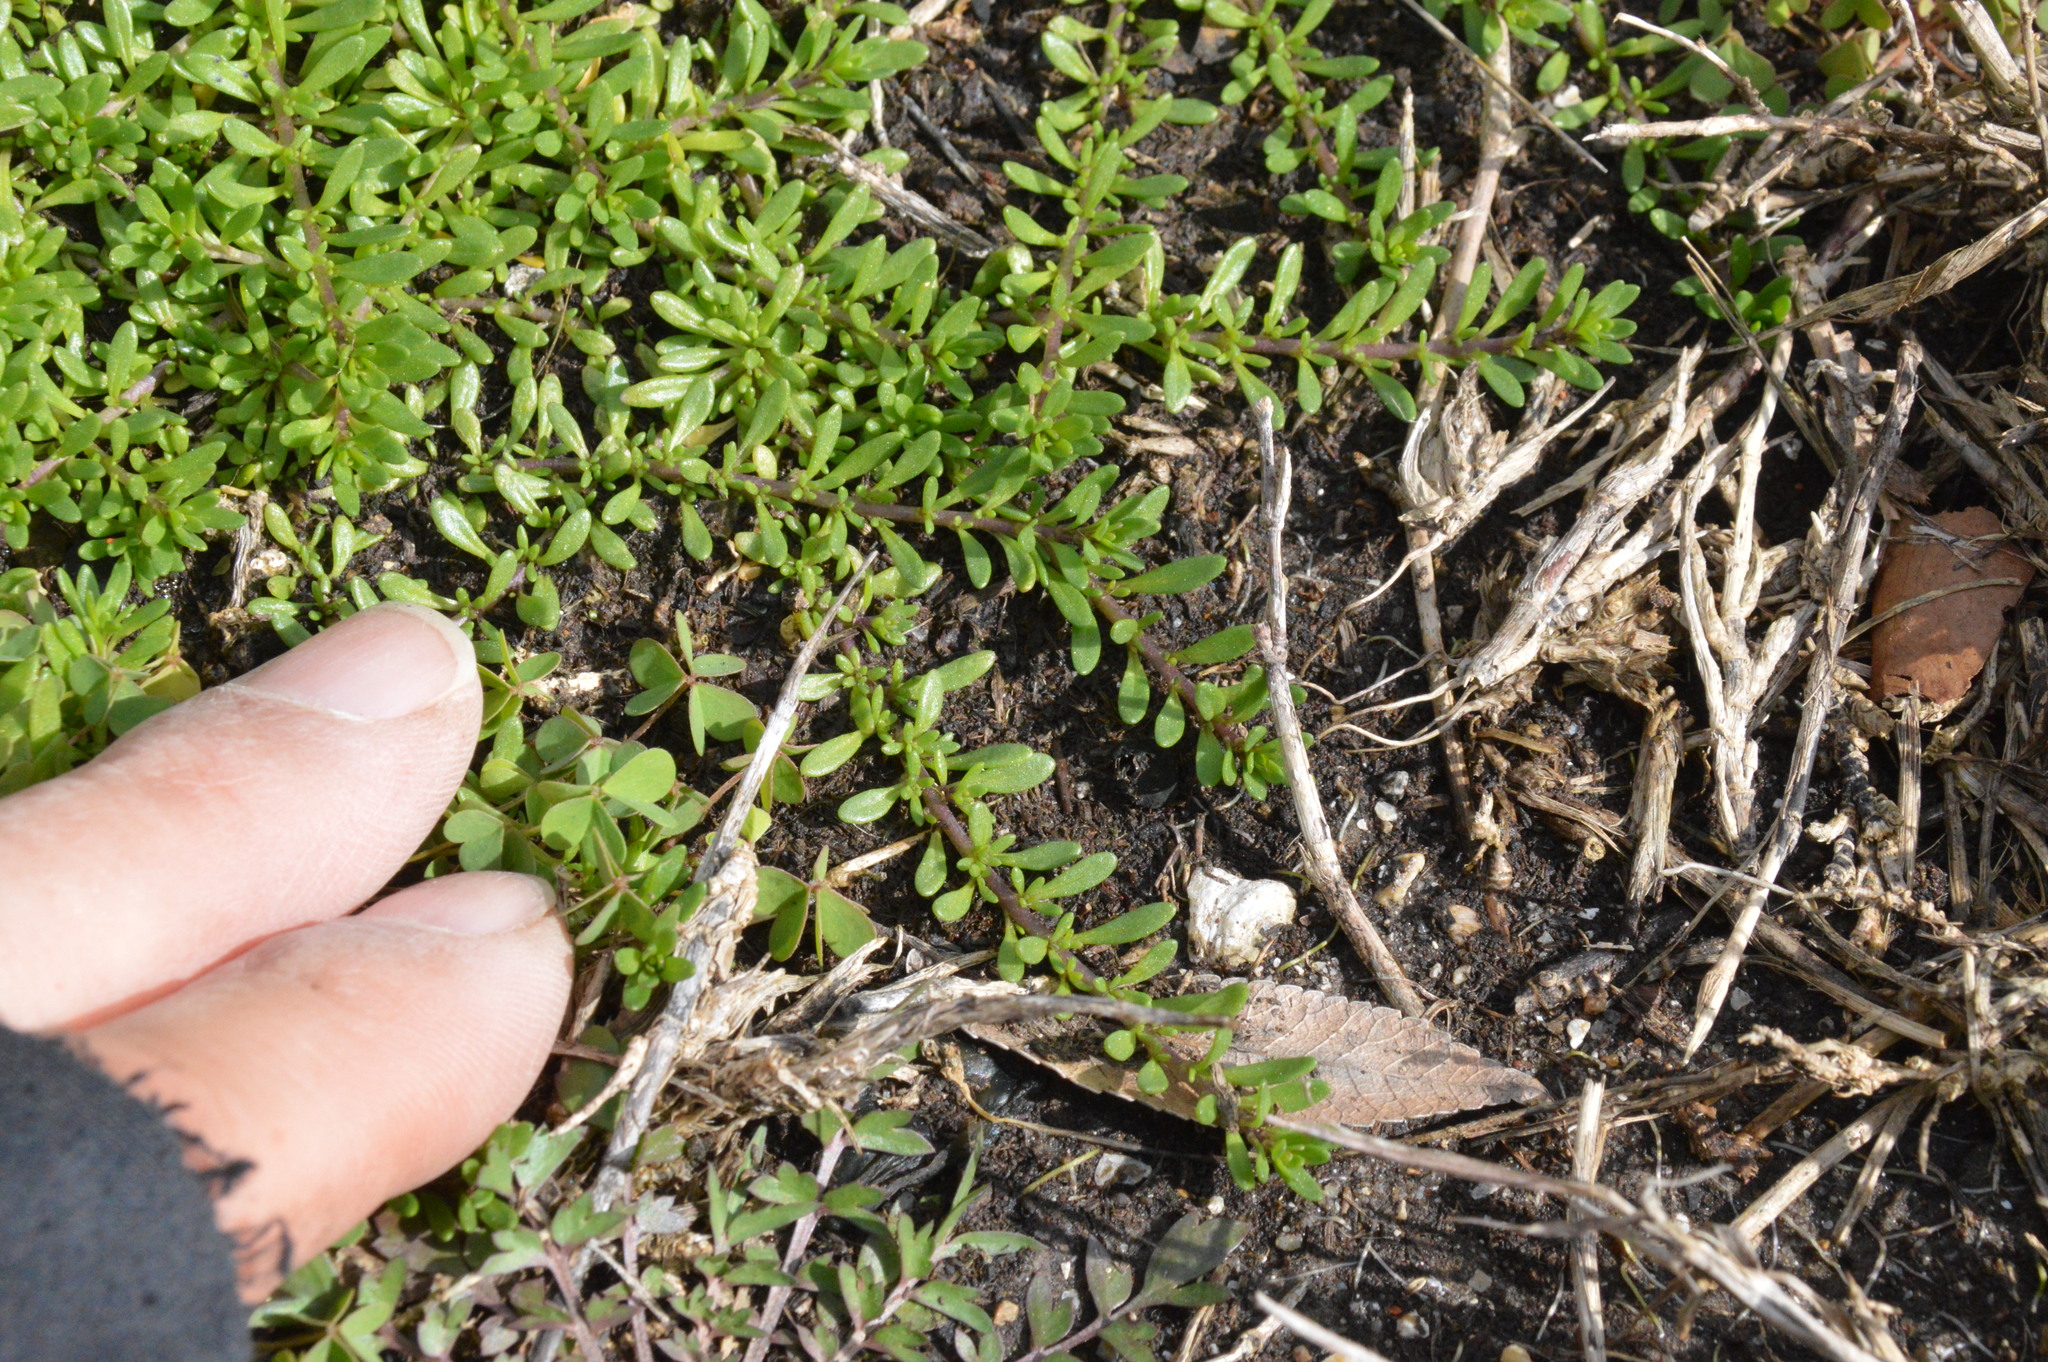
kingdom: Plantae
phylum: Tracheophyta
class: Magnoliopsida
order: Rosales
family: Urticaceae
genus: Pilea
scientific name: Pilea microphylla
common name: Artillery-plant
